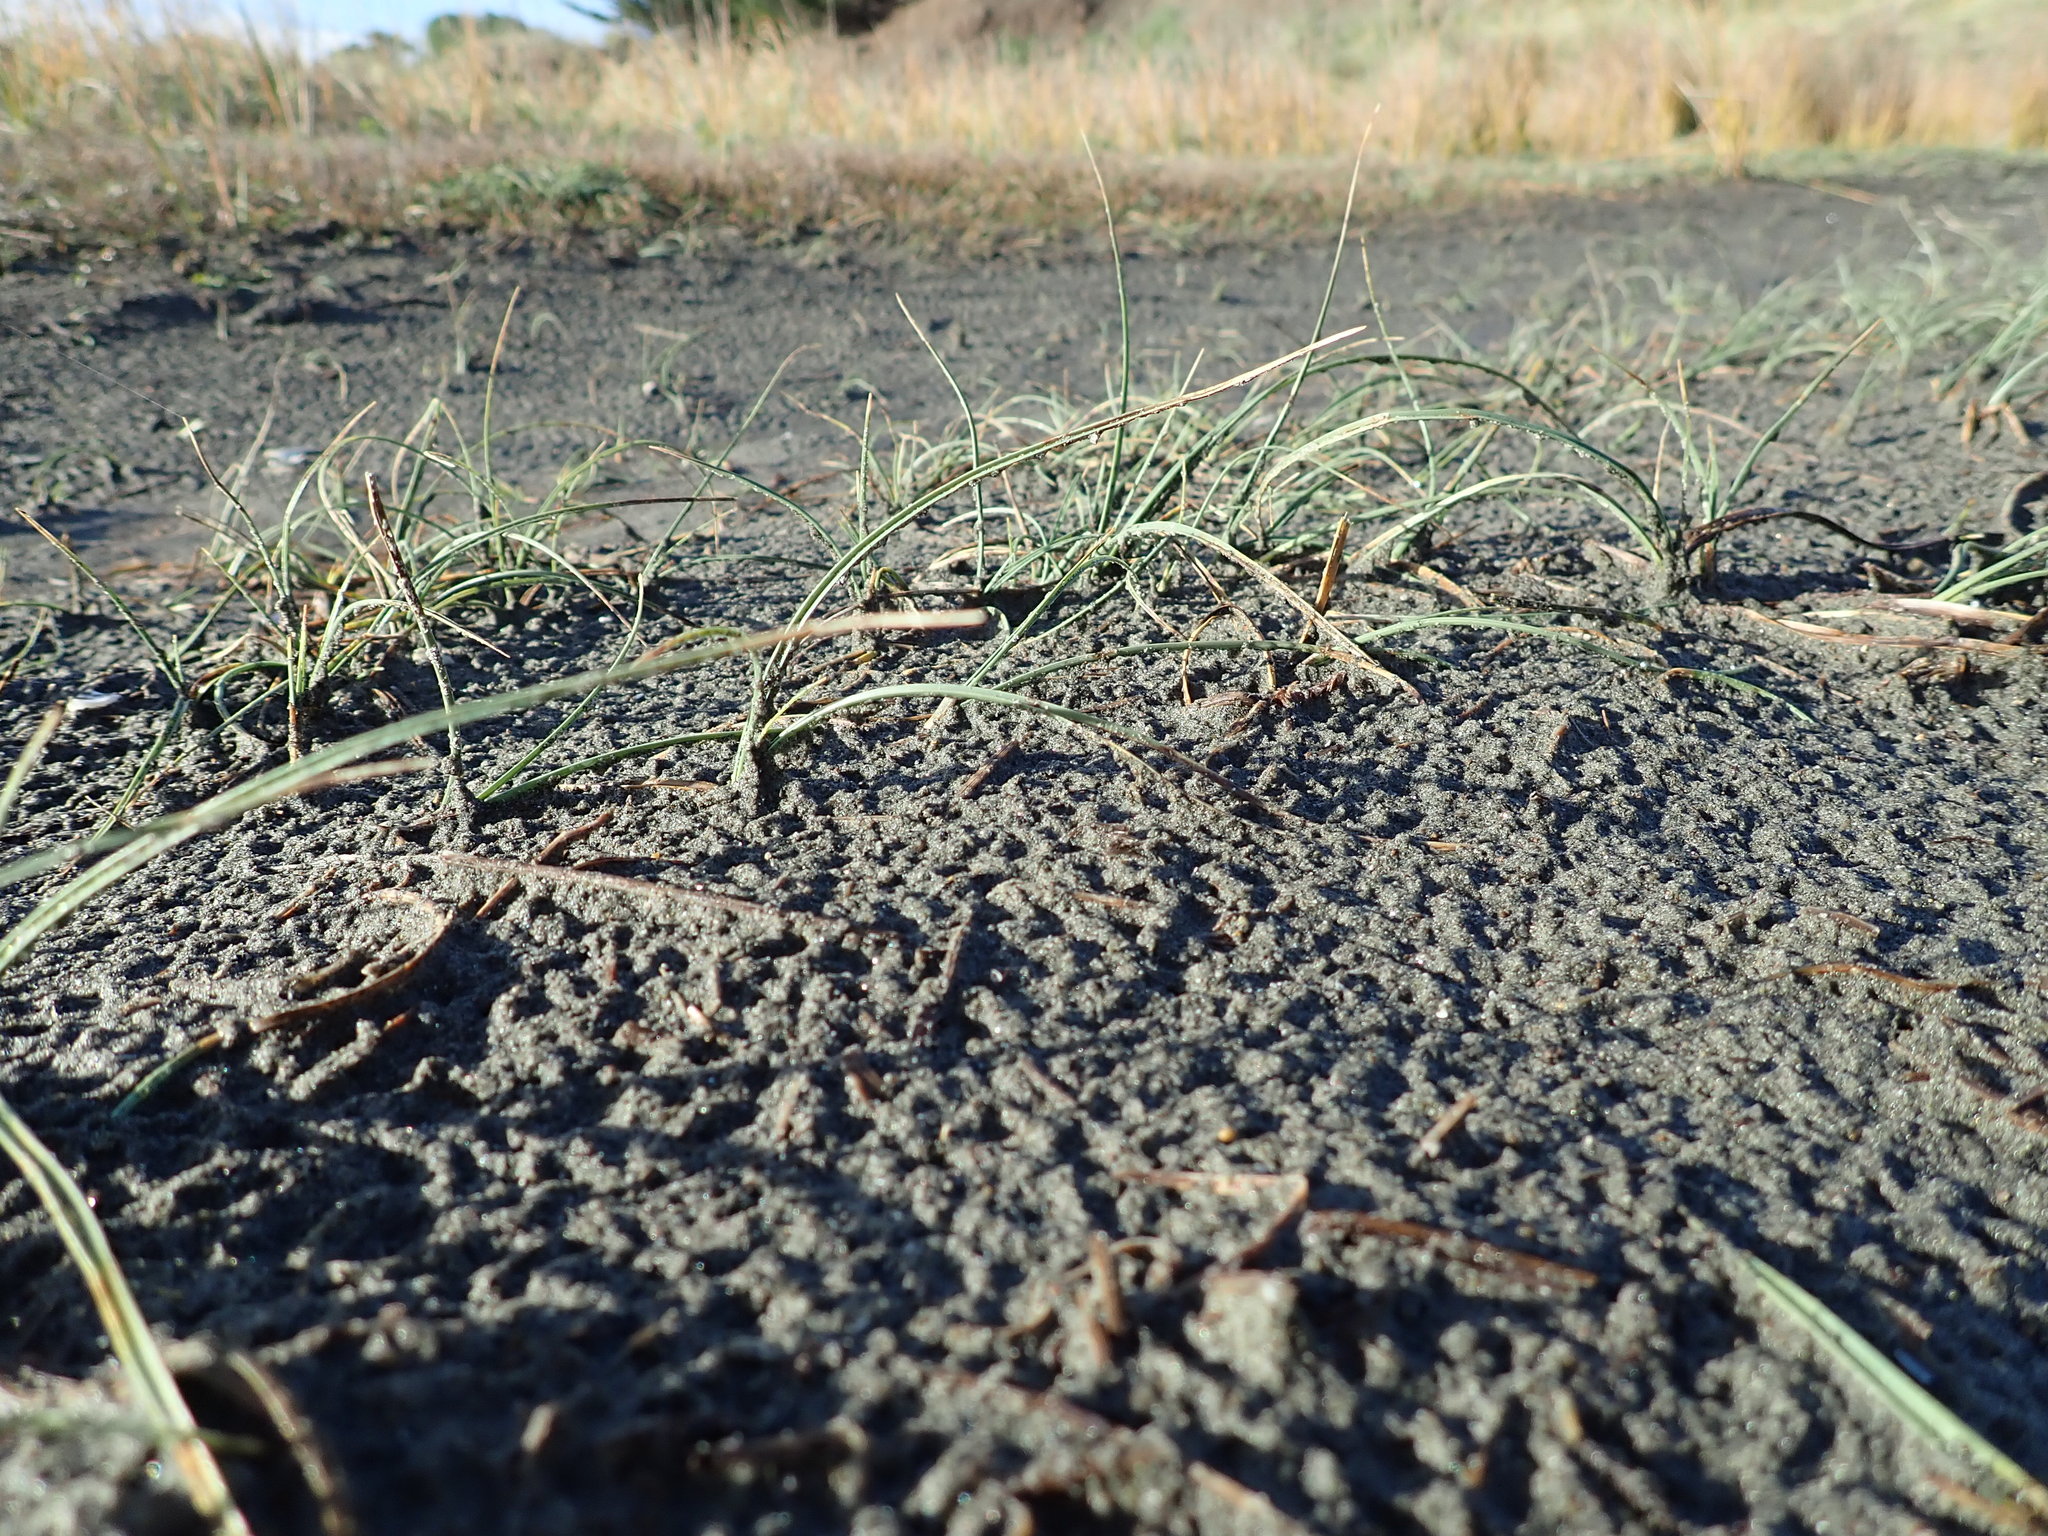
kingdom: Plantae
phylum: Tracheophyta
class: Liliopsida
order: Poales
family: Cyperaceae
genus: Carex
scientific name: Carex pumila
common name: Dwarf sedge
